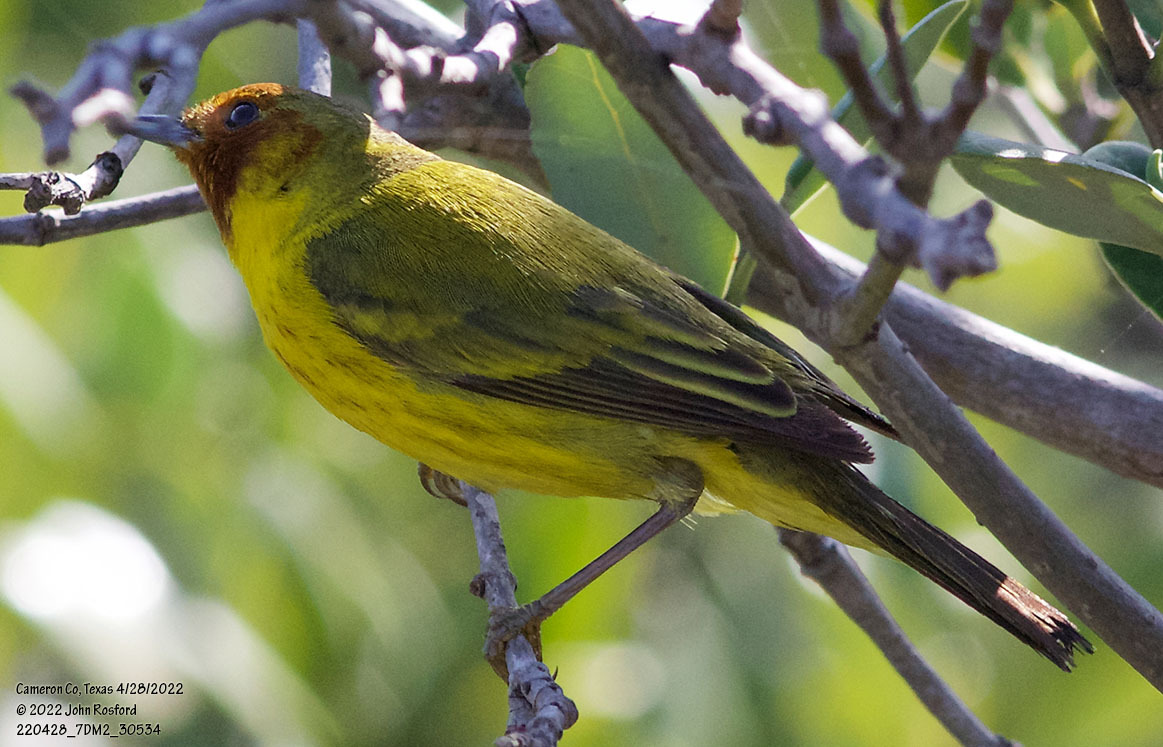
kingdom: Animalia
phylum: Chordata
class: Aves
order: Passeriformes
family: Parulidae
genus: Setophaga
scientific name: Setophaga petechia
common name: Yellow warbler
